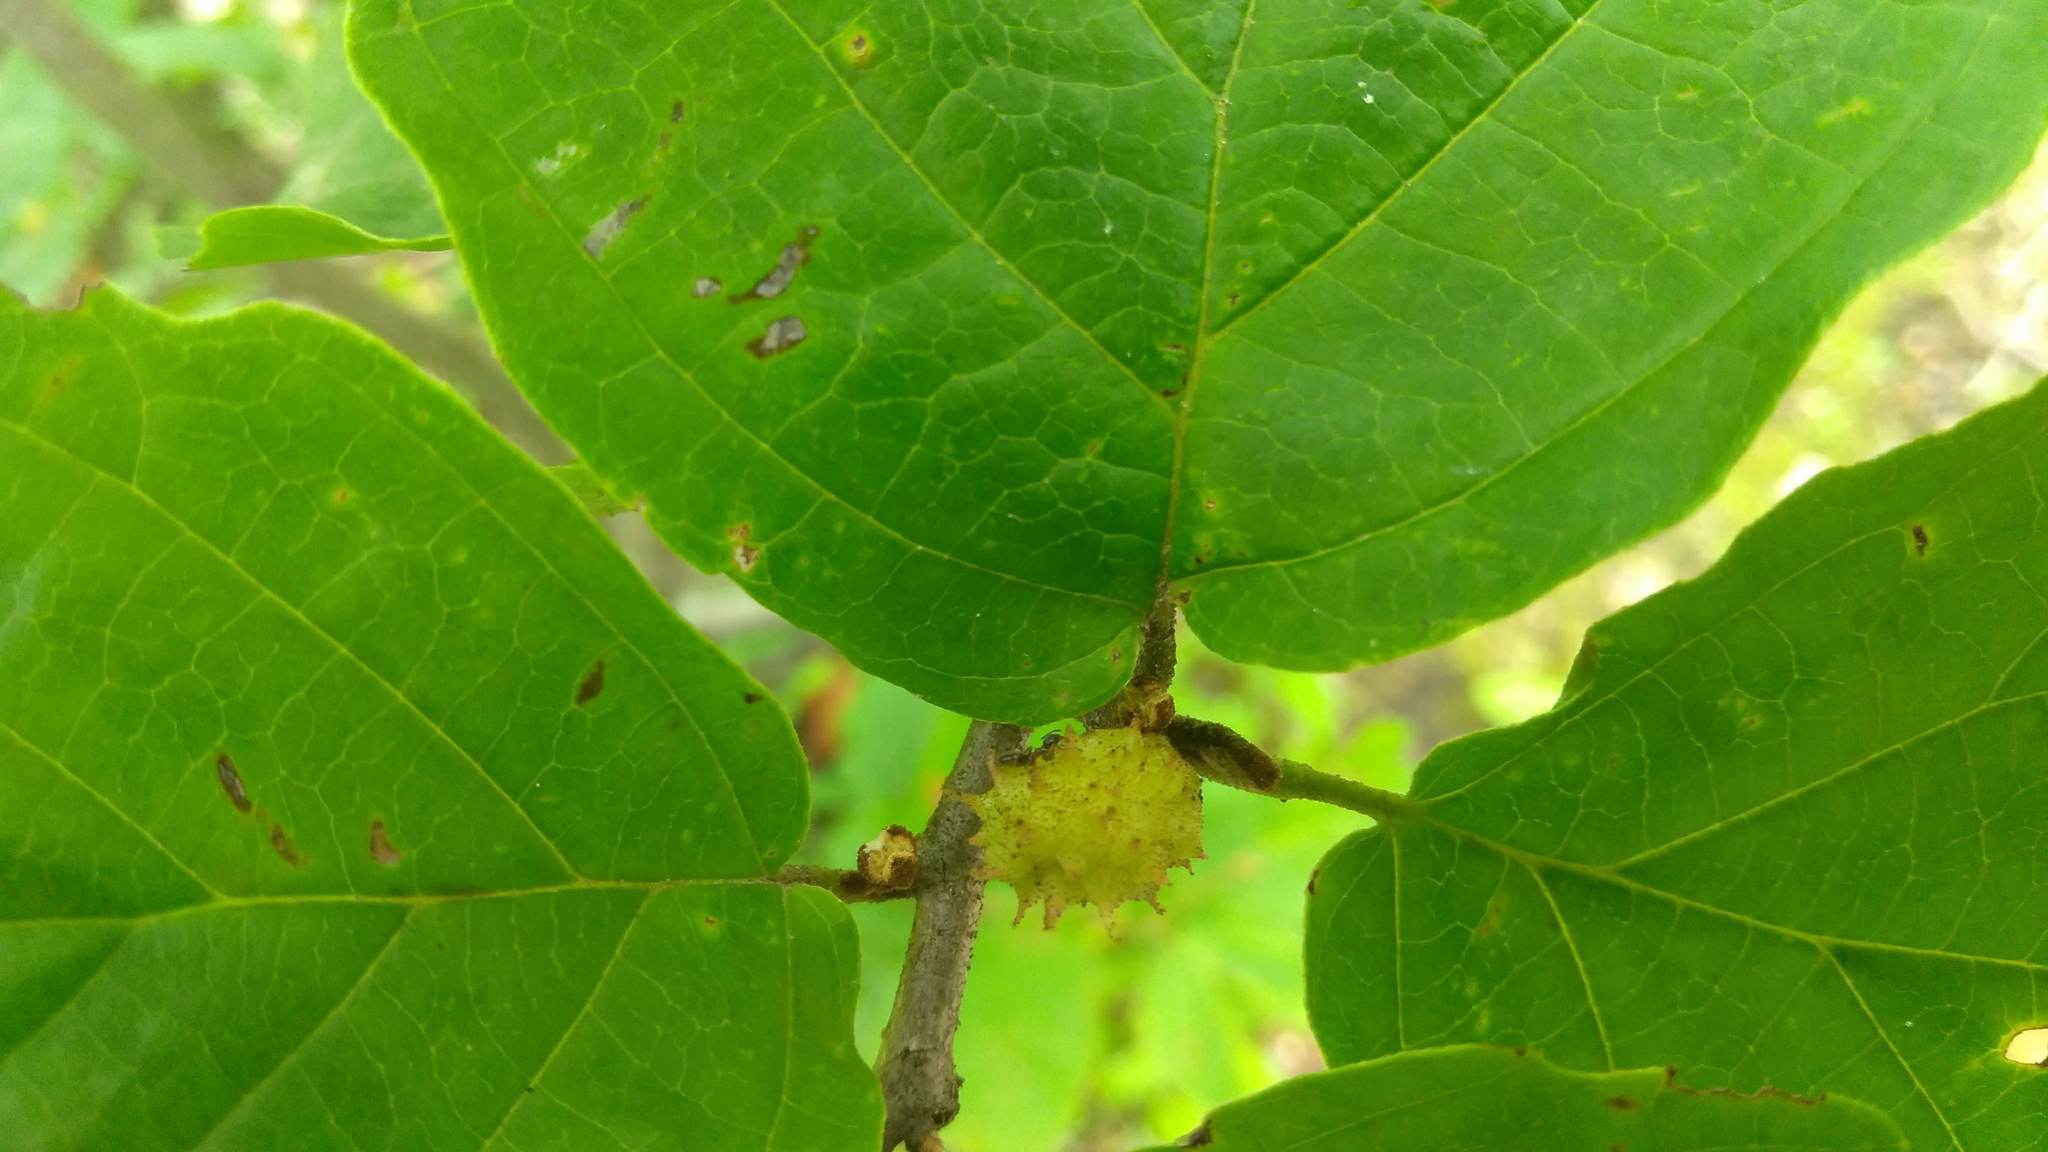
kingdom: Animalia
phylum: Arthropoda
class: Insecta
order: Hemiptera
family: Aphididae
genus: Hamamelistes
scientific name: Hamamelistes spinosus
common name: Witch hazel gall aphid
